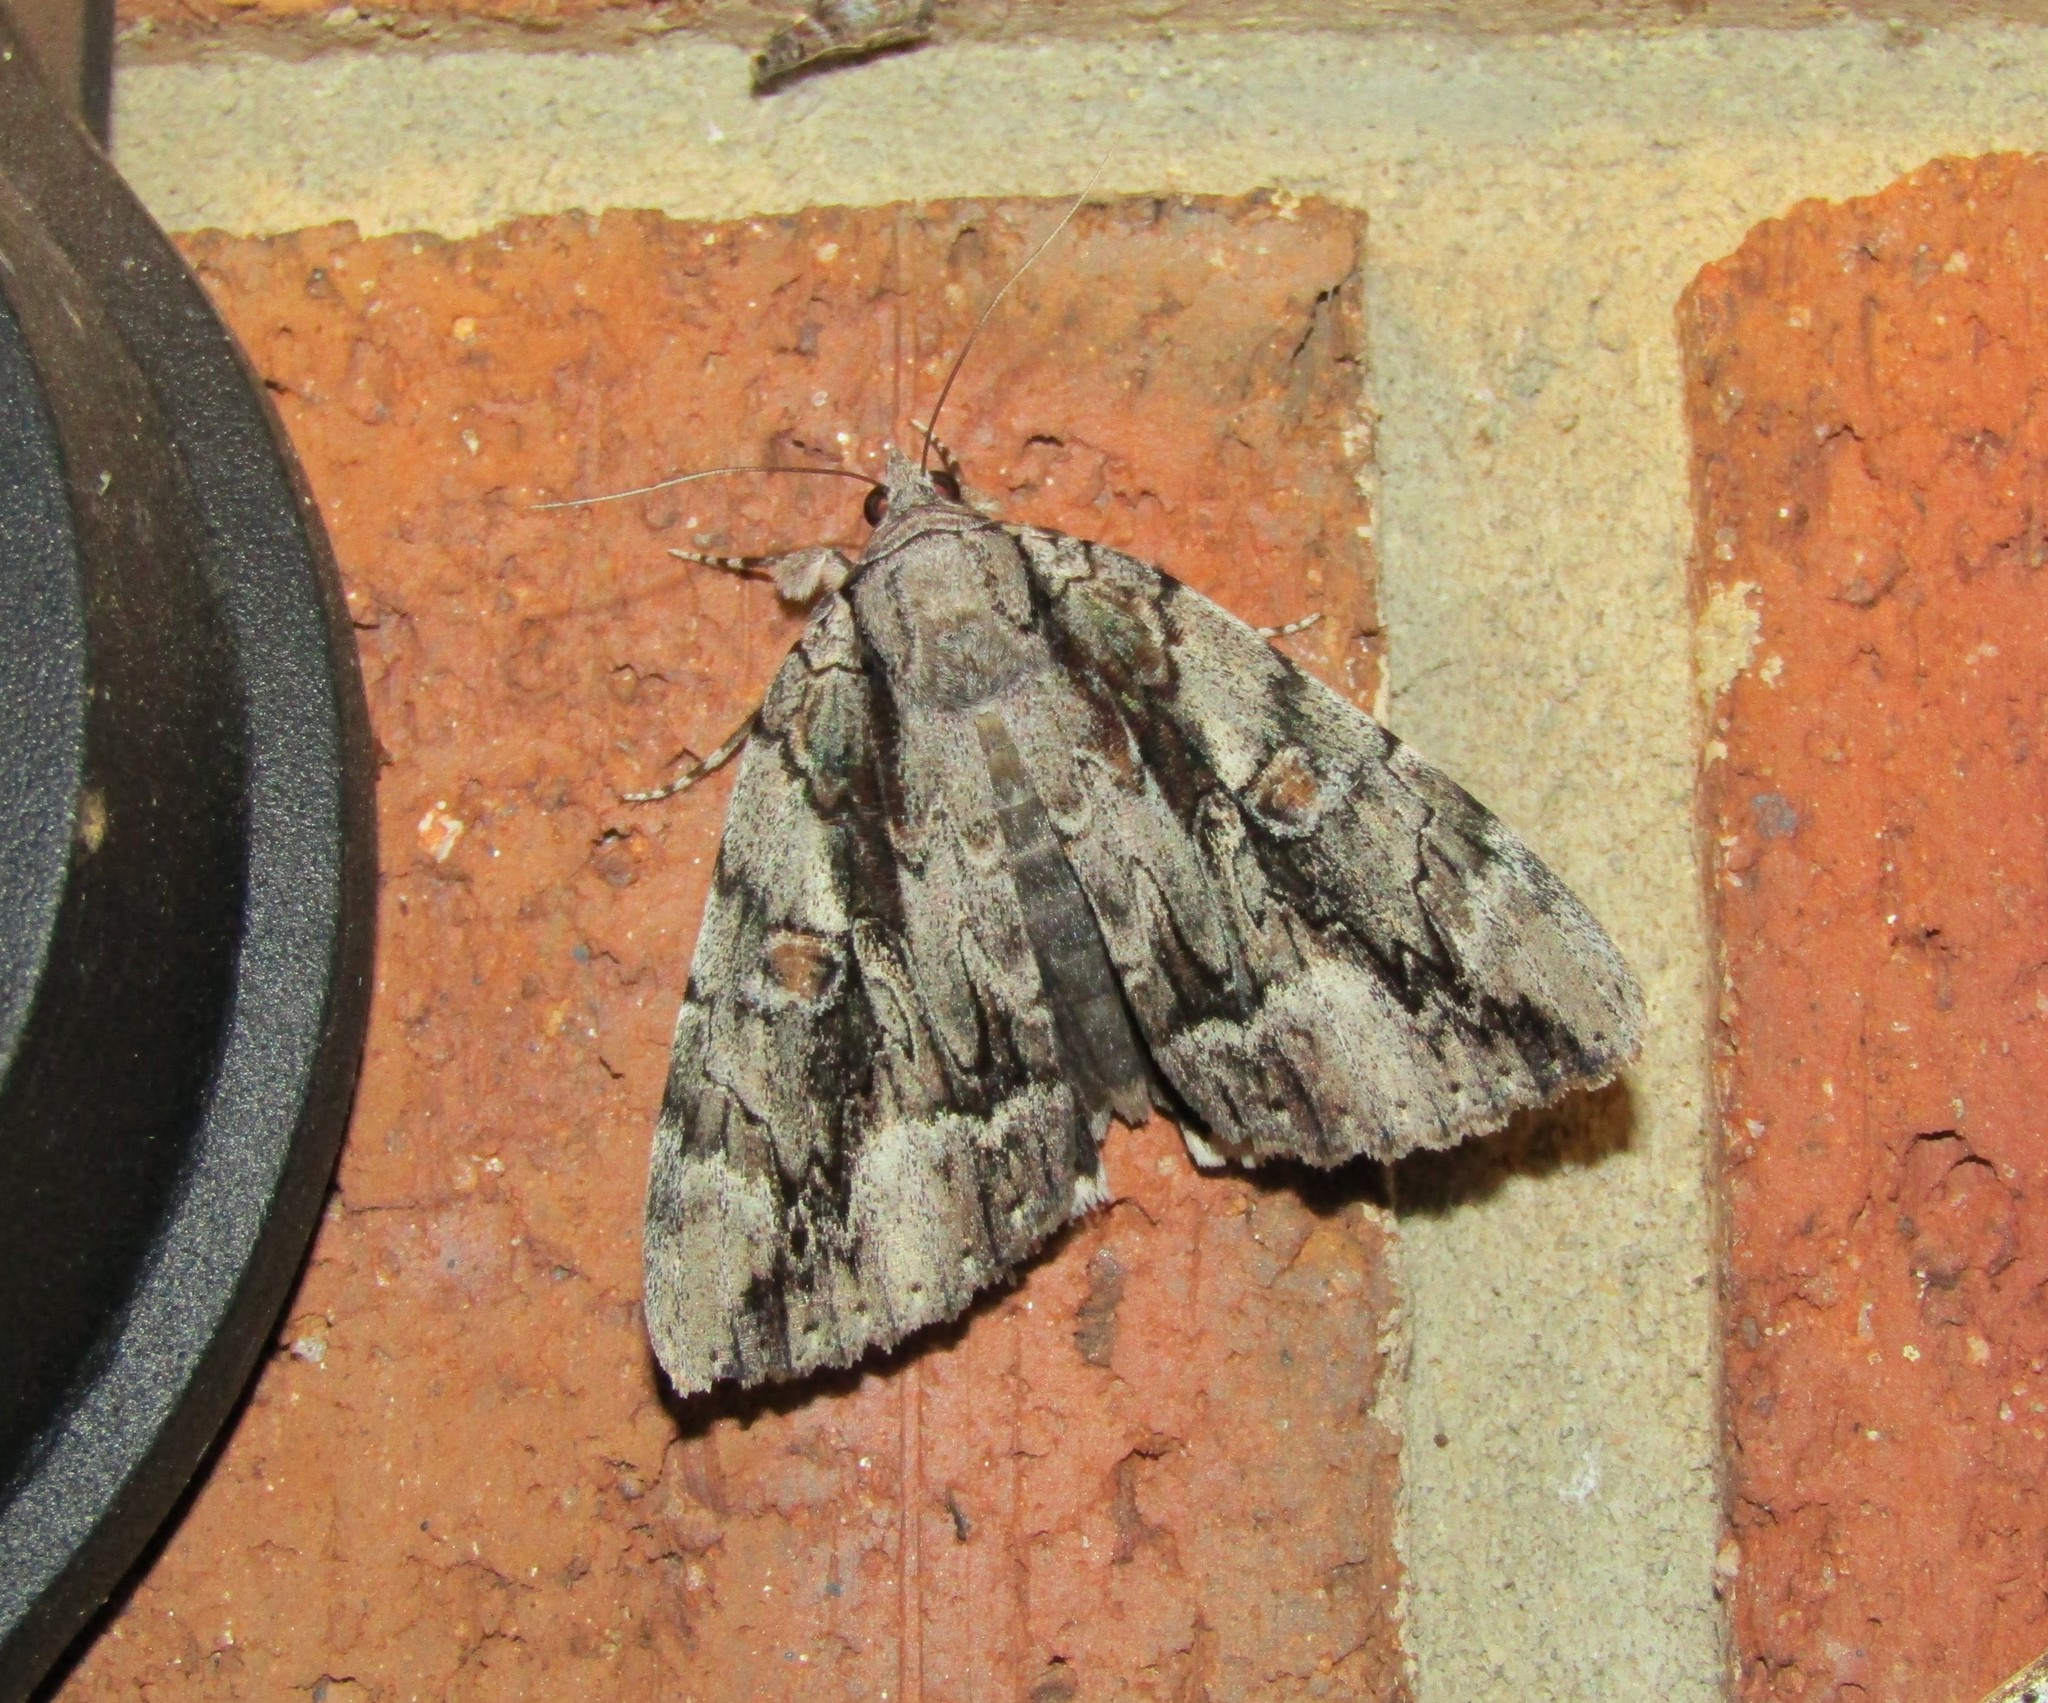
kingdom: Animalia
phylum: Arthropoda
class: Insecta
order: Lepidoptera
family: Erebidae
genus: Catocala
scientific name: Catocala flebilis
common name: Mournful underwing
